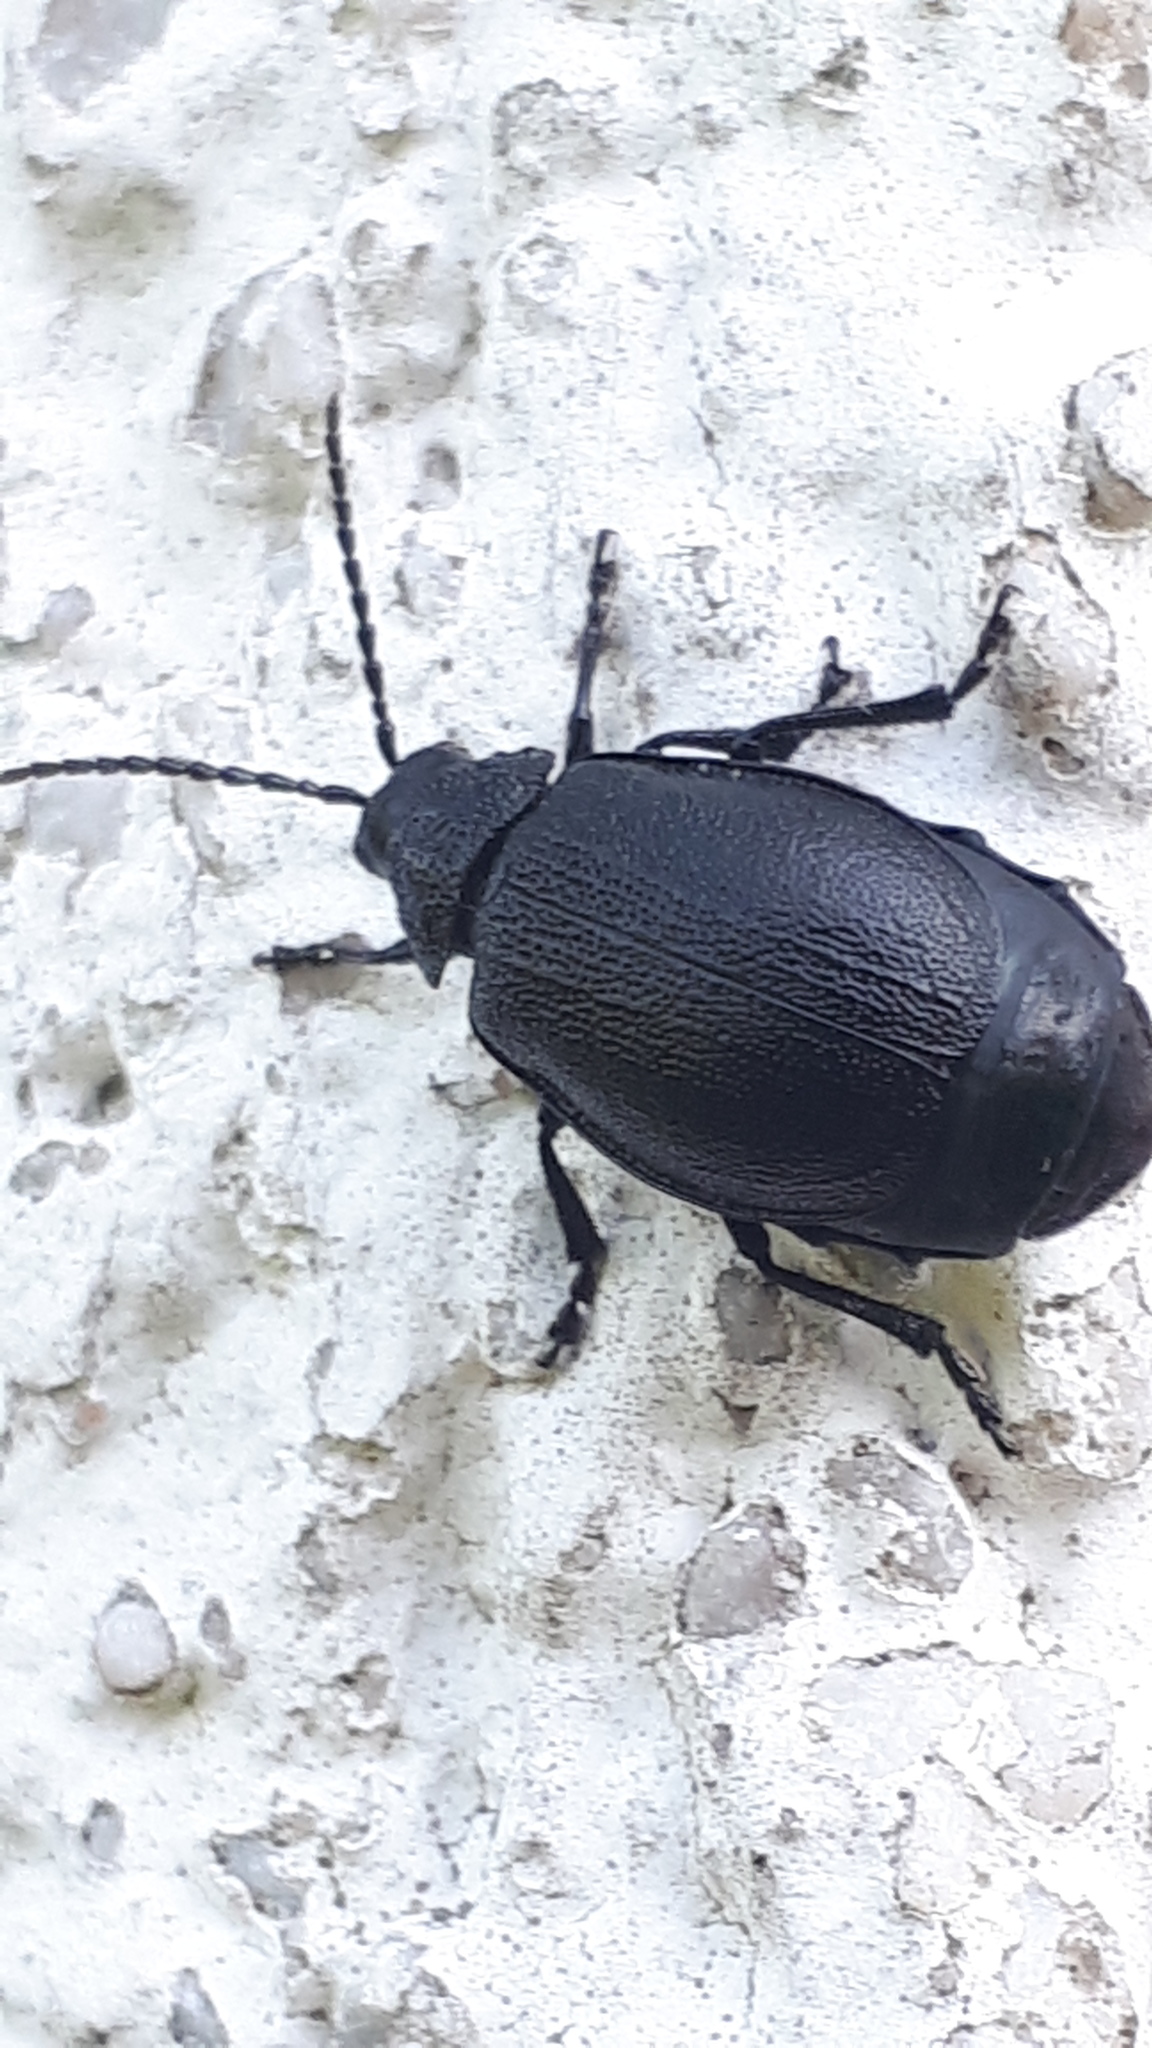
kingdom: Animalia
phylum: Arthropoda
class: Insecta
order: Coleoptera
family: Chrysomelidae
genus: Galeruca
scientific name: Galeruca tanaceti
